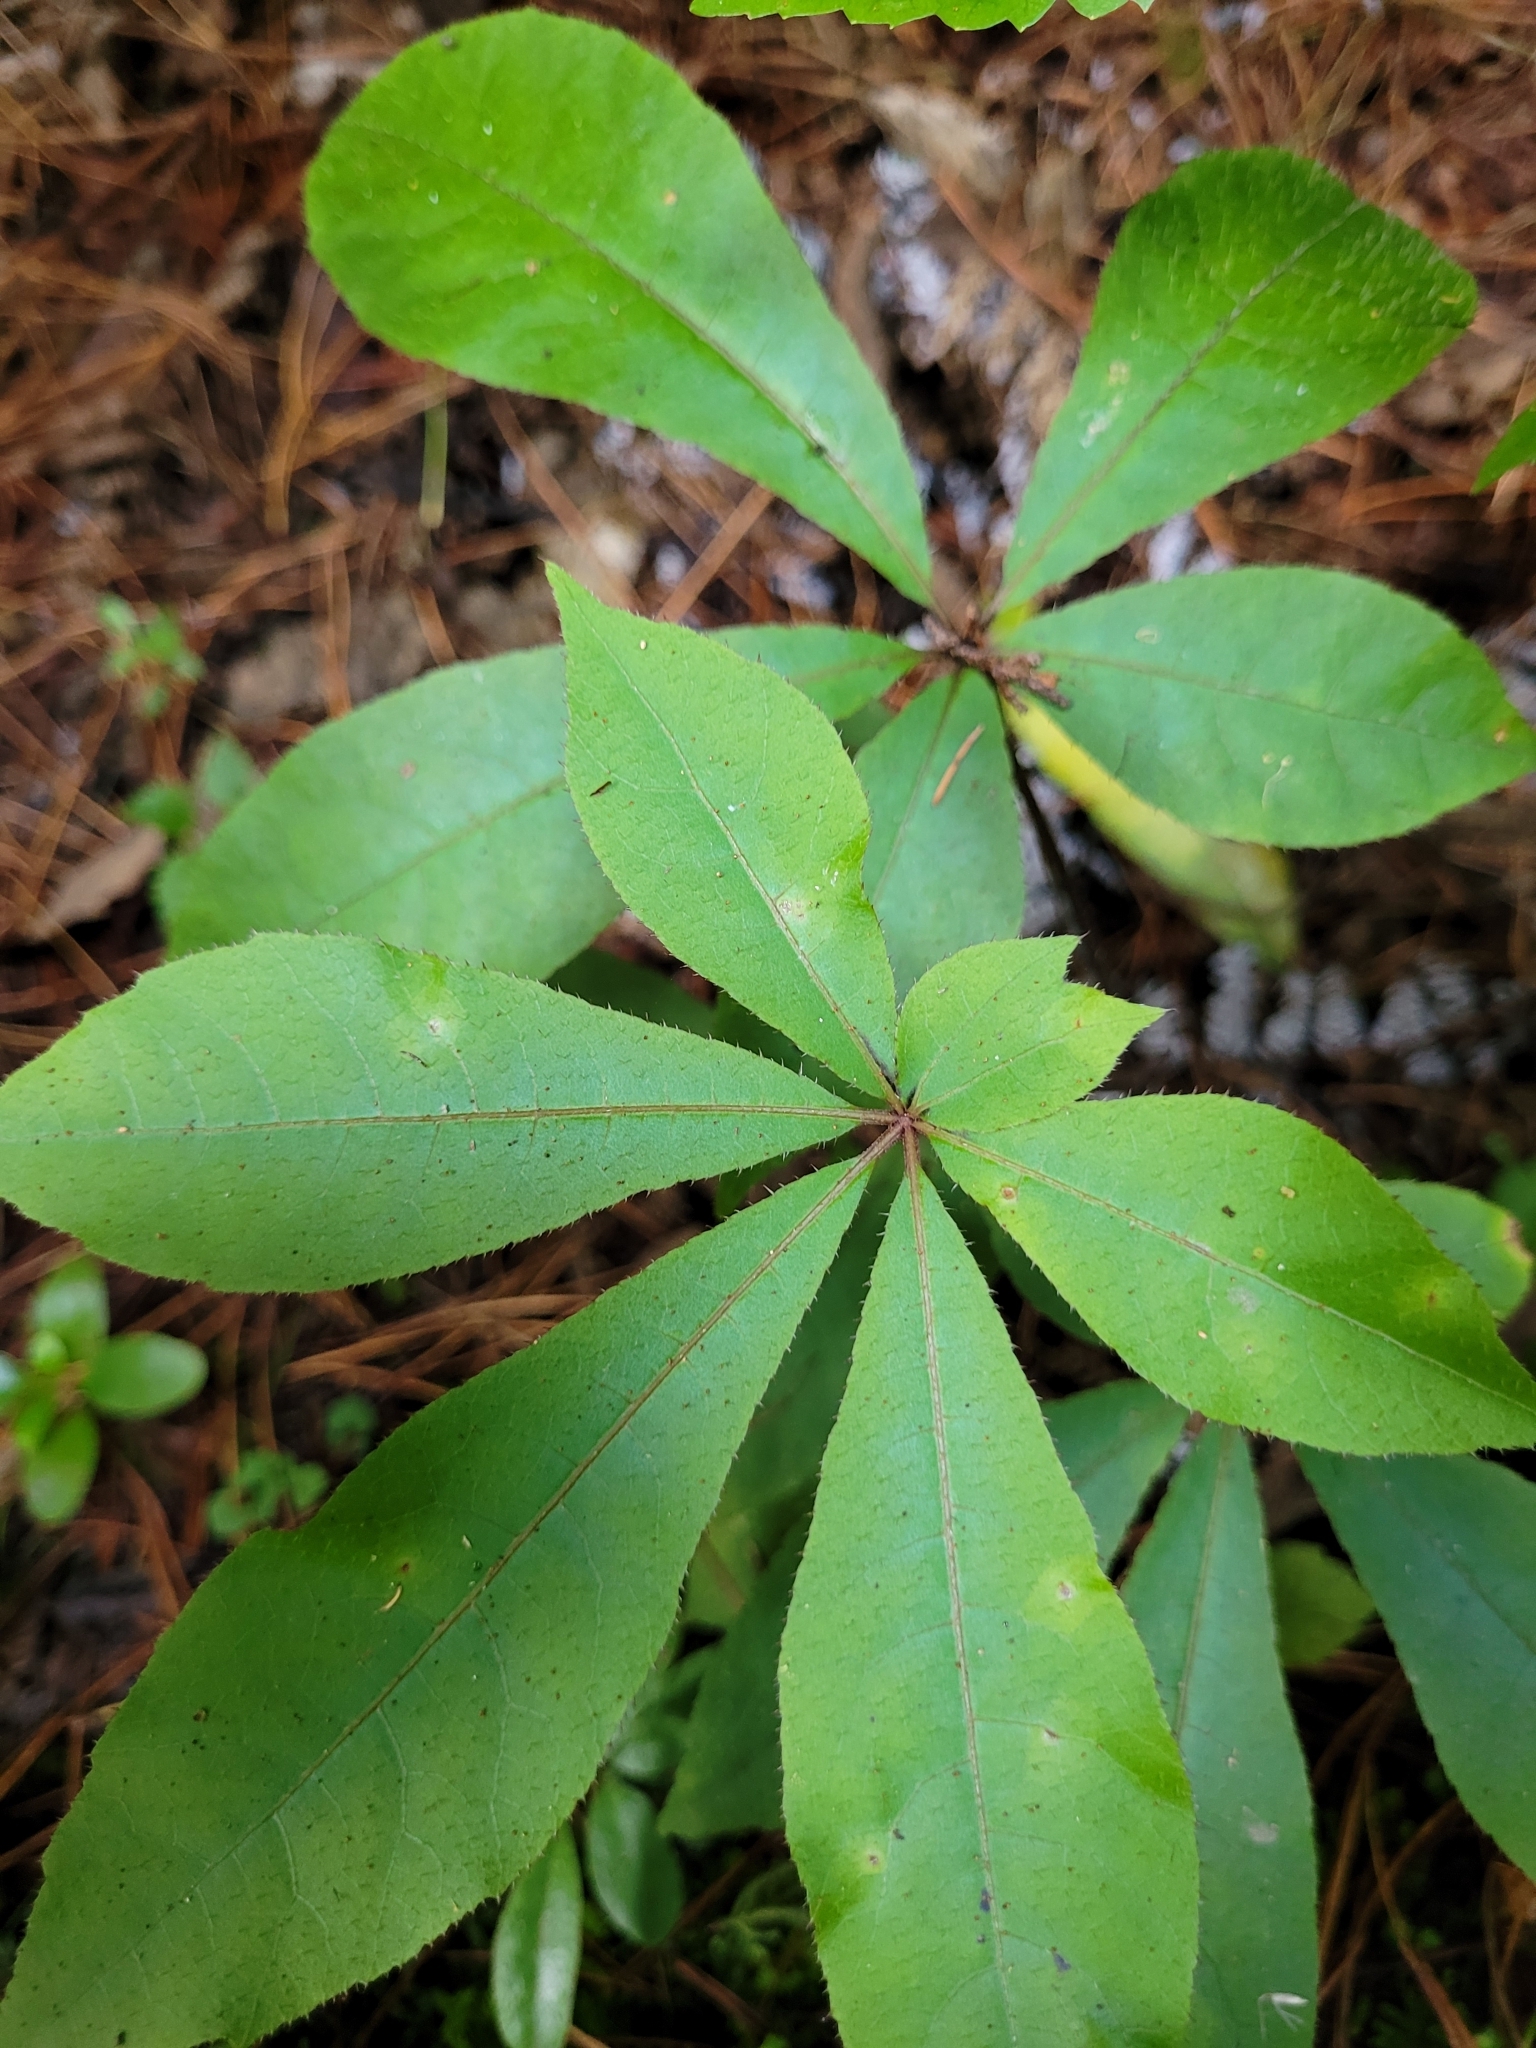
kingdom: Plantae
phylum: Tracheophyta
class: Magnoliopsida
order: Apiales
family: Araliaceae
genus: Schefflera
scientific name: Schefflera digitata
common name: Pate
